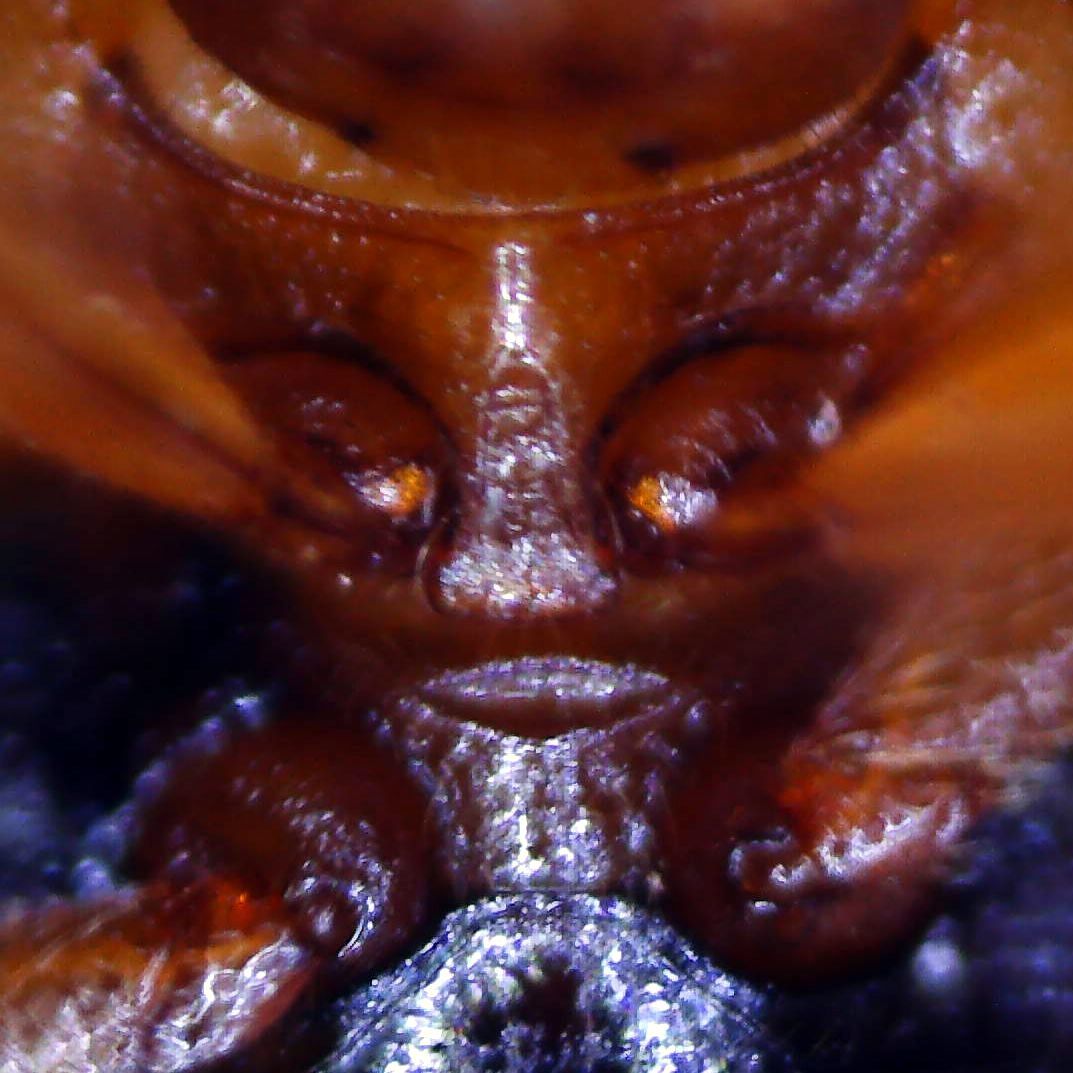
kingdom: Animalia
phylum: Arthropoda
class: Insecta
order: Coleoptera
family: Coccinellidae
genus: Rhyzobius
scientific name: Rhyzobius chrysomeloides
